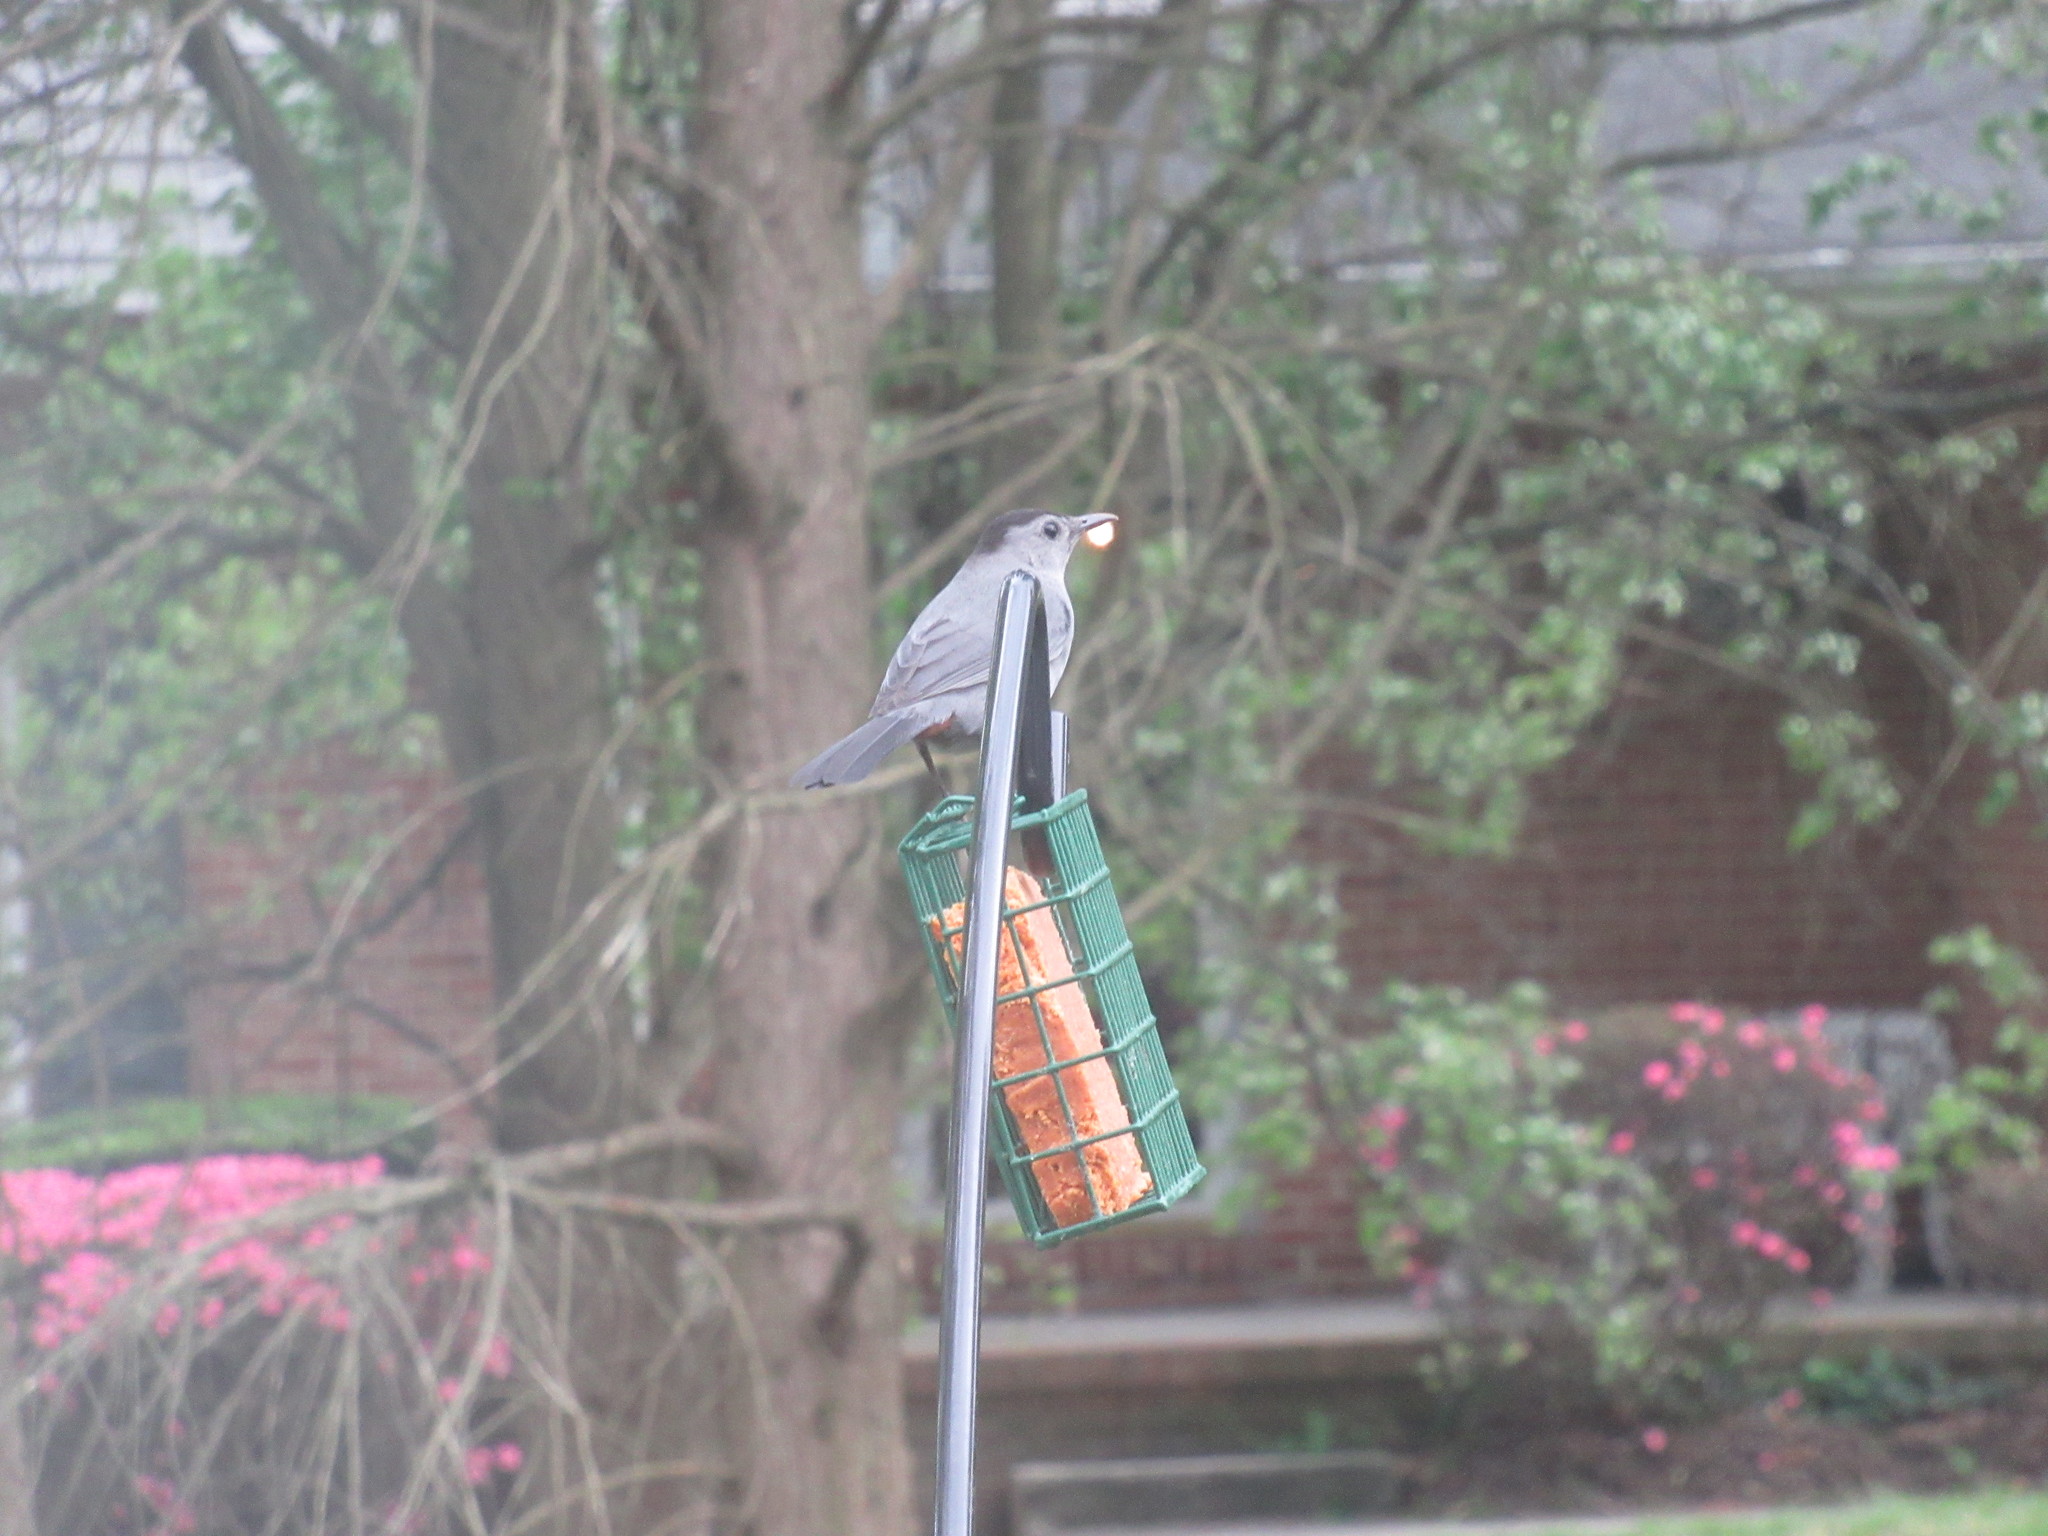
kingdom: Animalia
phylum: Chordata
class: Aves
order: Passeriformes
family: Mimidae
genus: Dumetella
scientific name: Dumetella carolinensis
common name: Gray catbird
